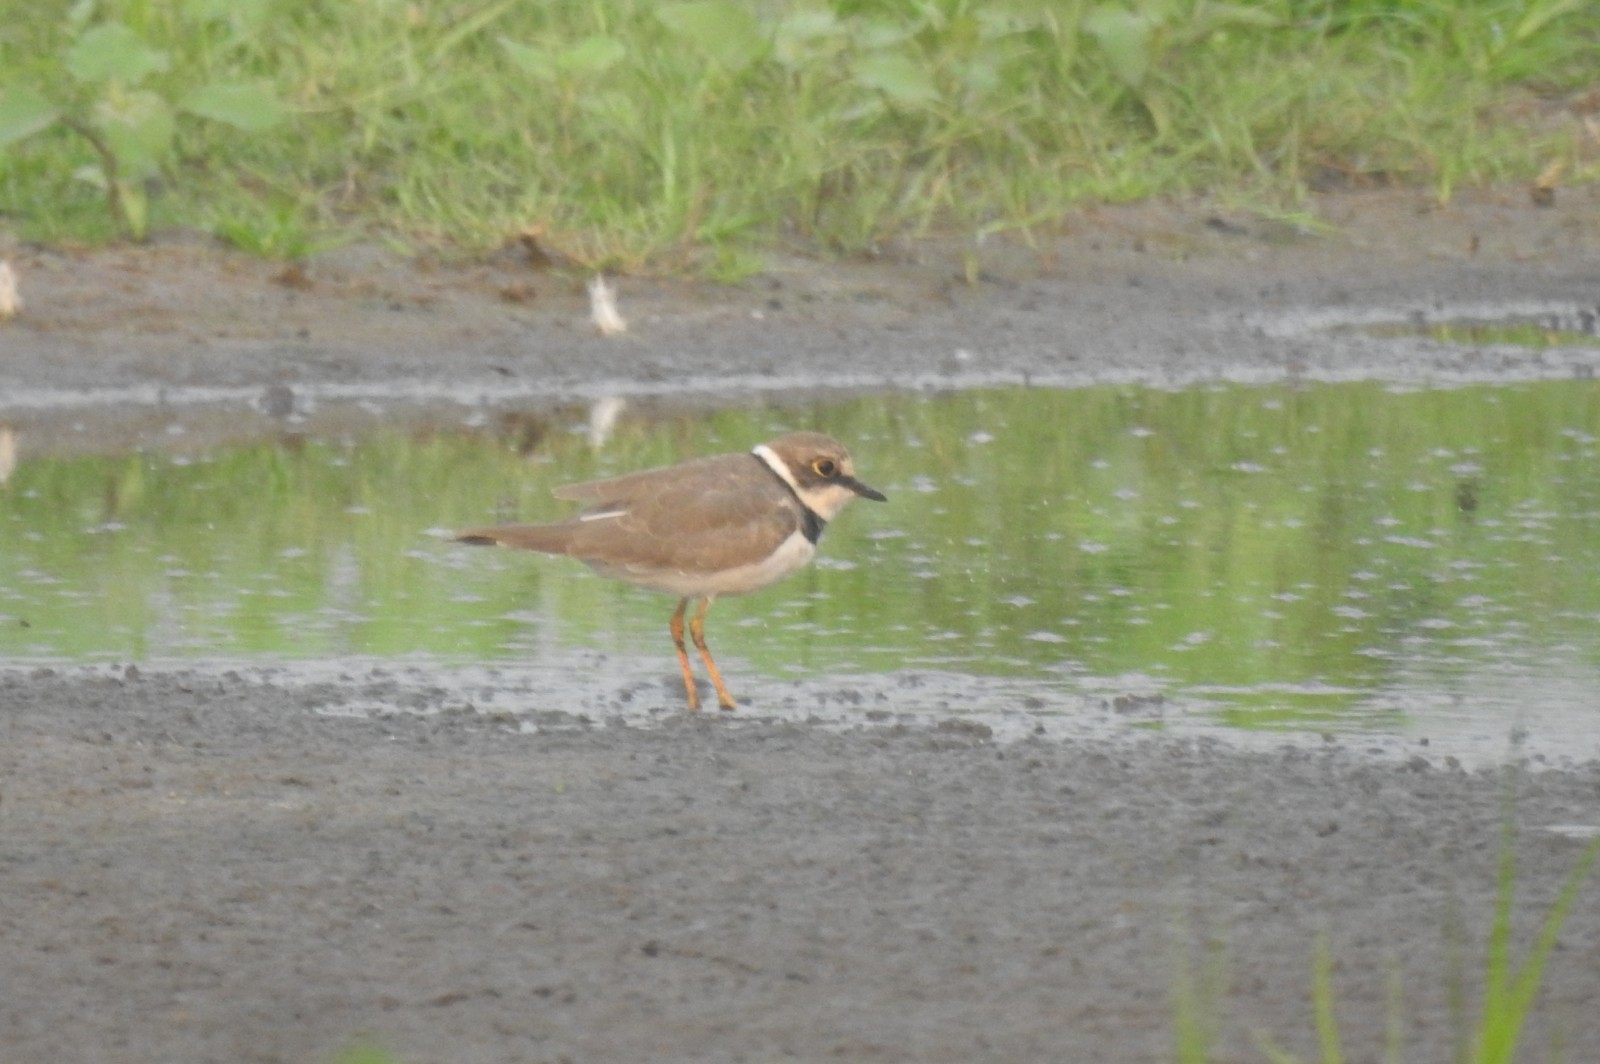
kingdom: Animalia
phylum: Chordata
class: Aves
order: Charadriiformes
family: Charadriidae
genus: Charadrius
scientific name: Charadrius dubius
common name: Little ringed plover
